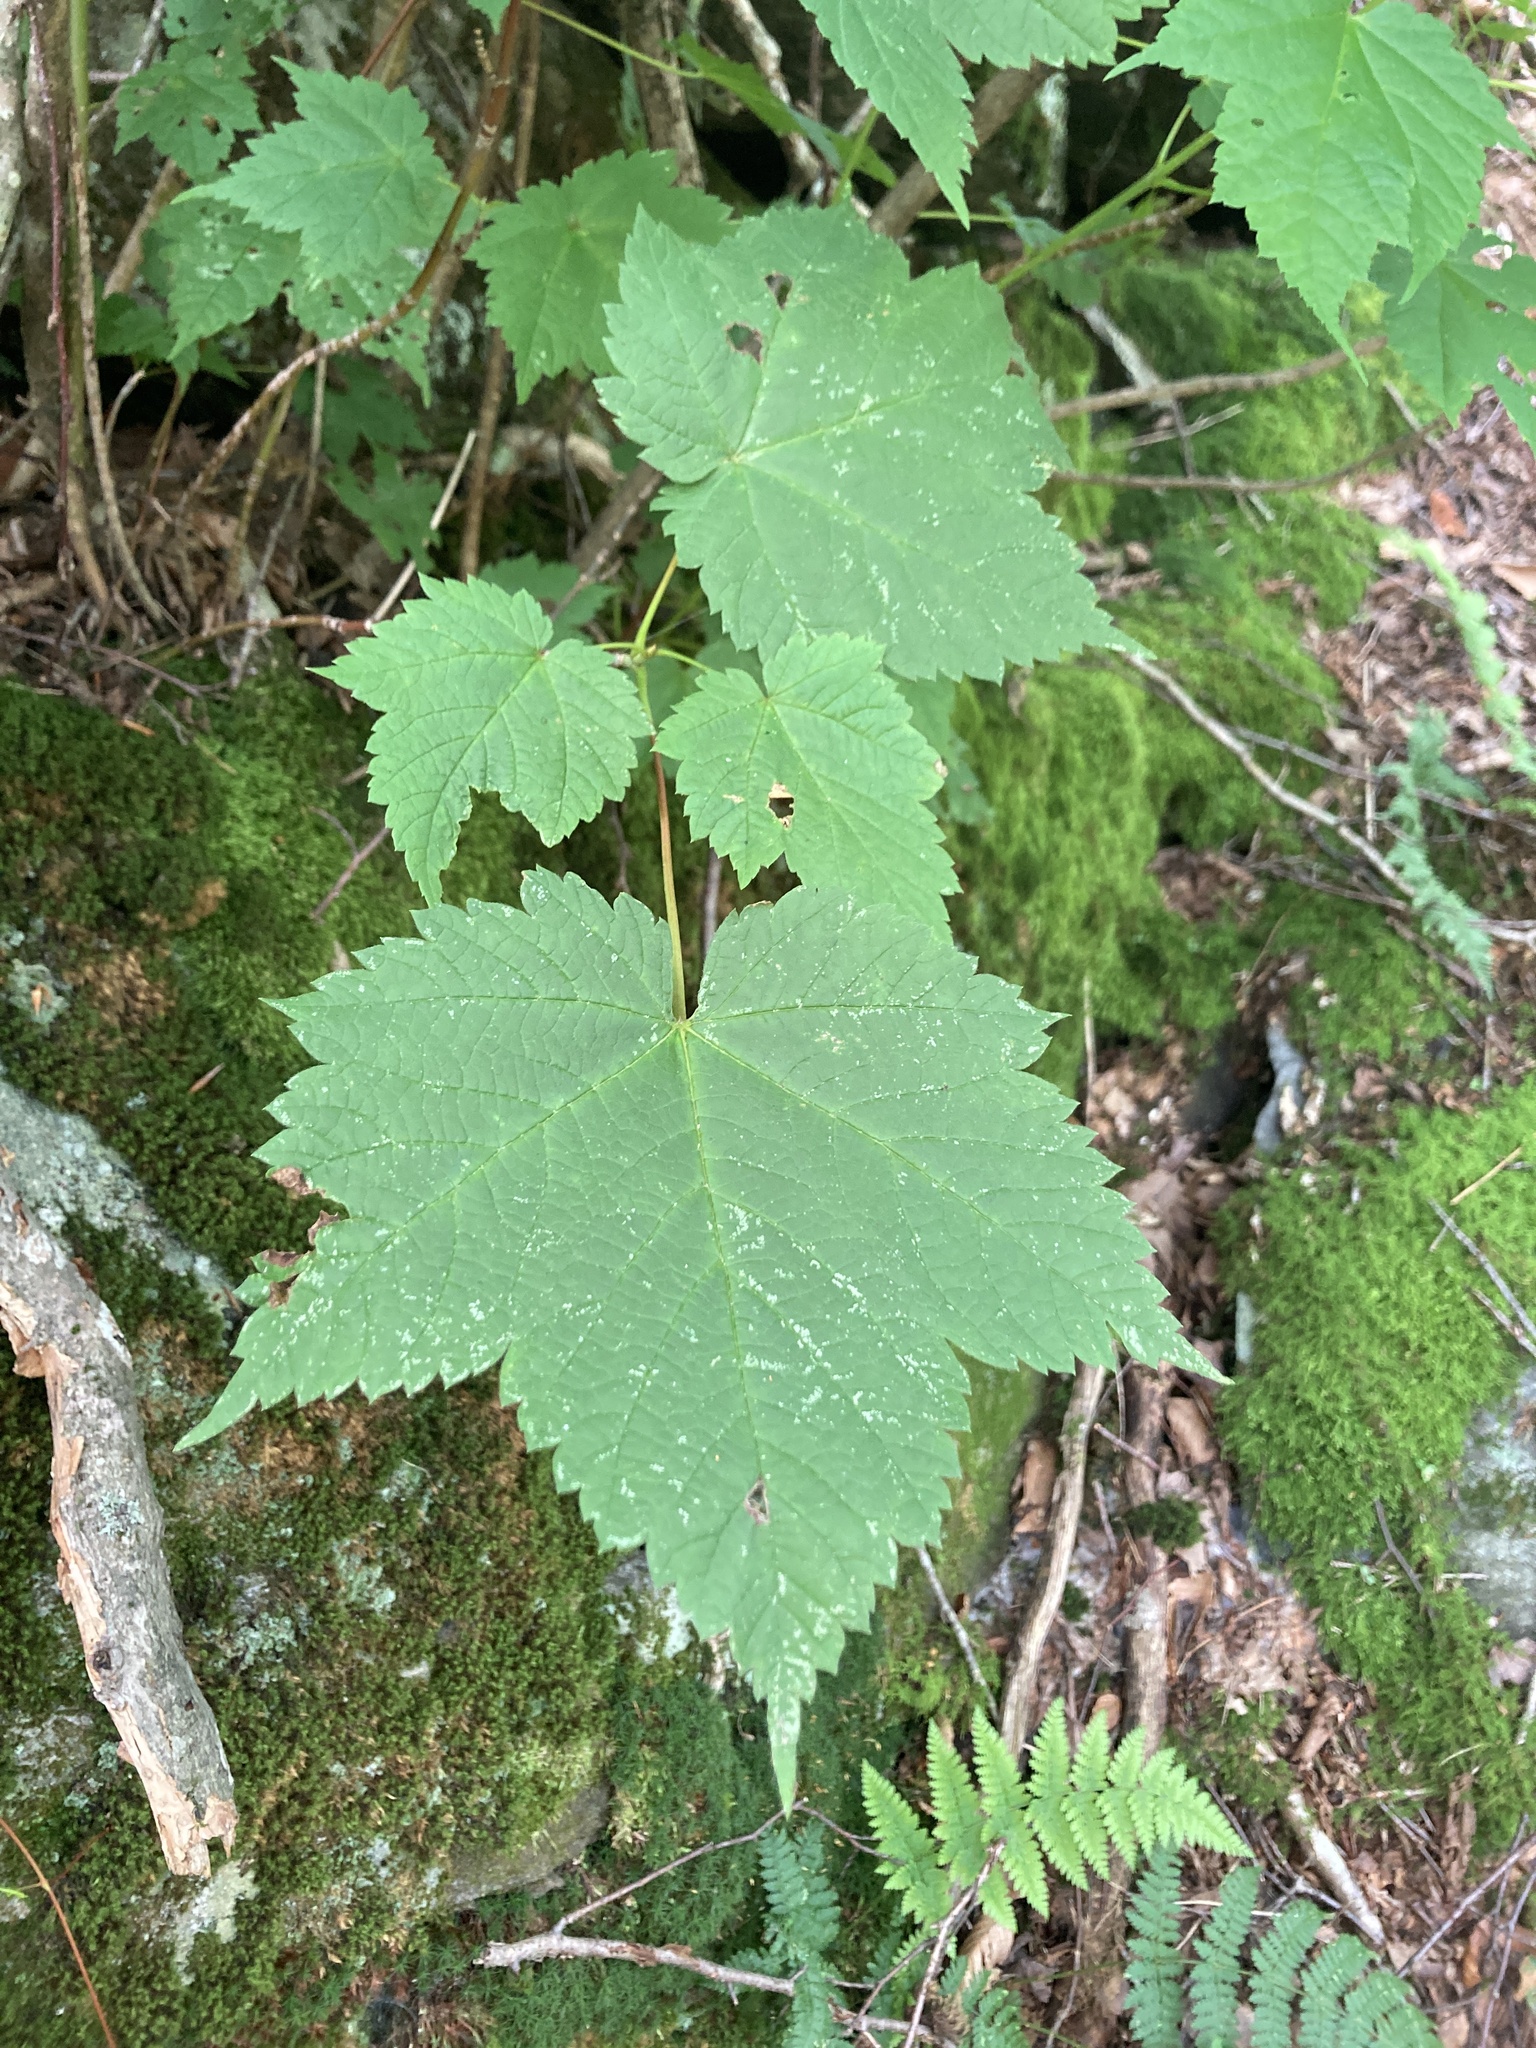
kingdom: Plantae
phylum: Tracheophyta
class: Magnoliopsida
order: Sapindales
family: Sapindaceae
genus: Acer
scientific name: Acer spicatum
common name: Mountain maple
